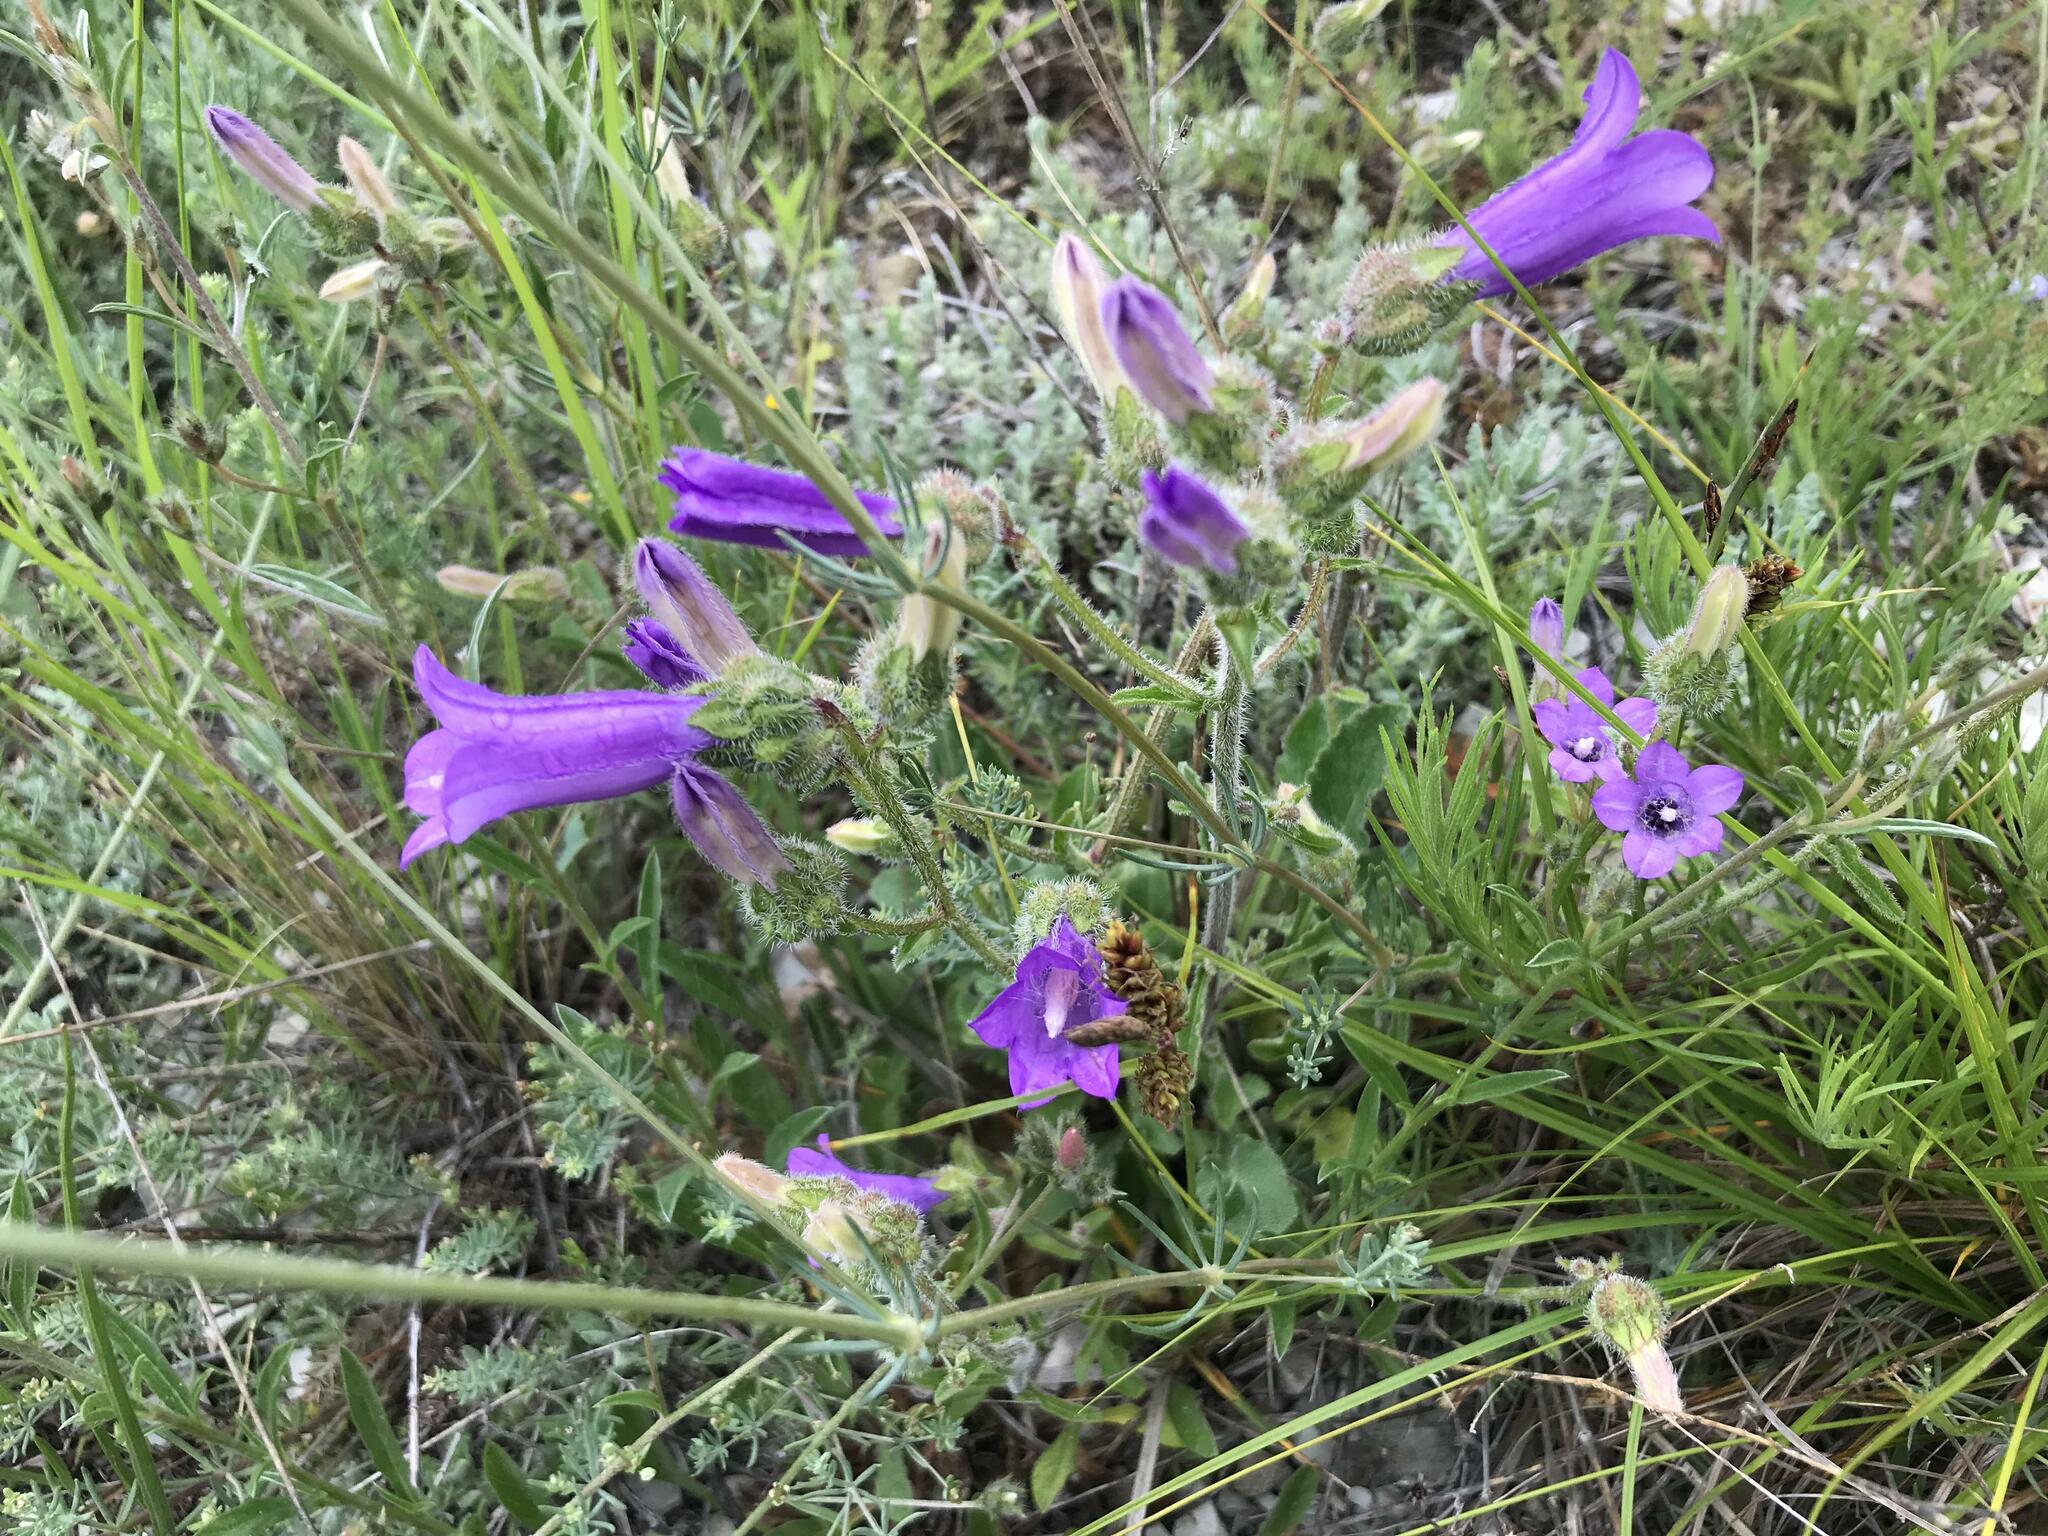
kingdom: Plantae
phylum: Tracheophyta
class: Magnoliopsida
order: Asterales
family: Campanulaceae
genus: Campanula
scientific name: Campanula komarovii
